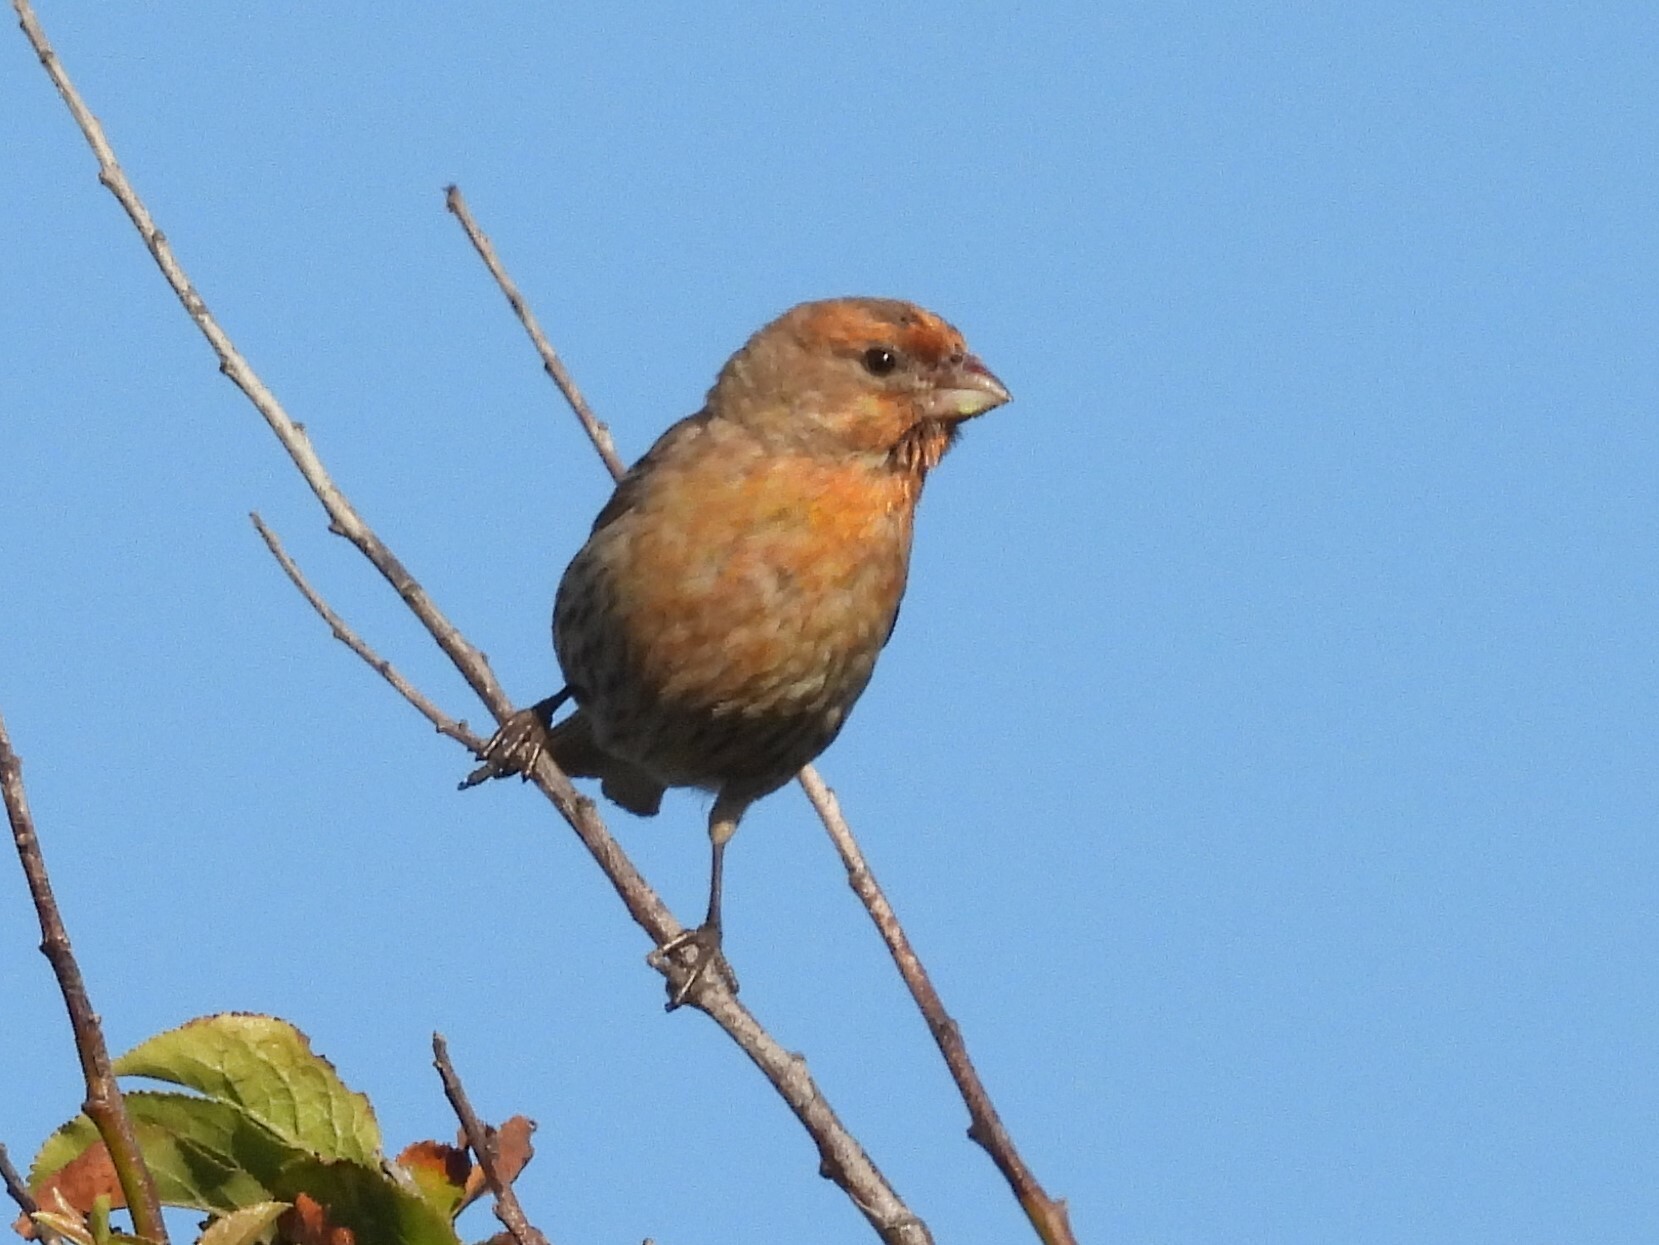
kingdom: Animalia
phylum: Chordata
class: Aves
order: Passeriformes
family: Fringillidae
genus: Haemorhous
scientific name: Haemorhous mexicanus
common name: House finch
